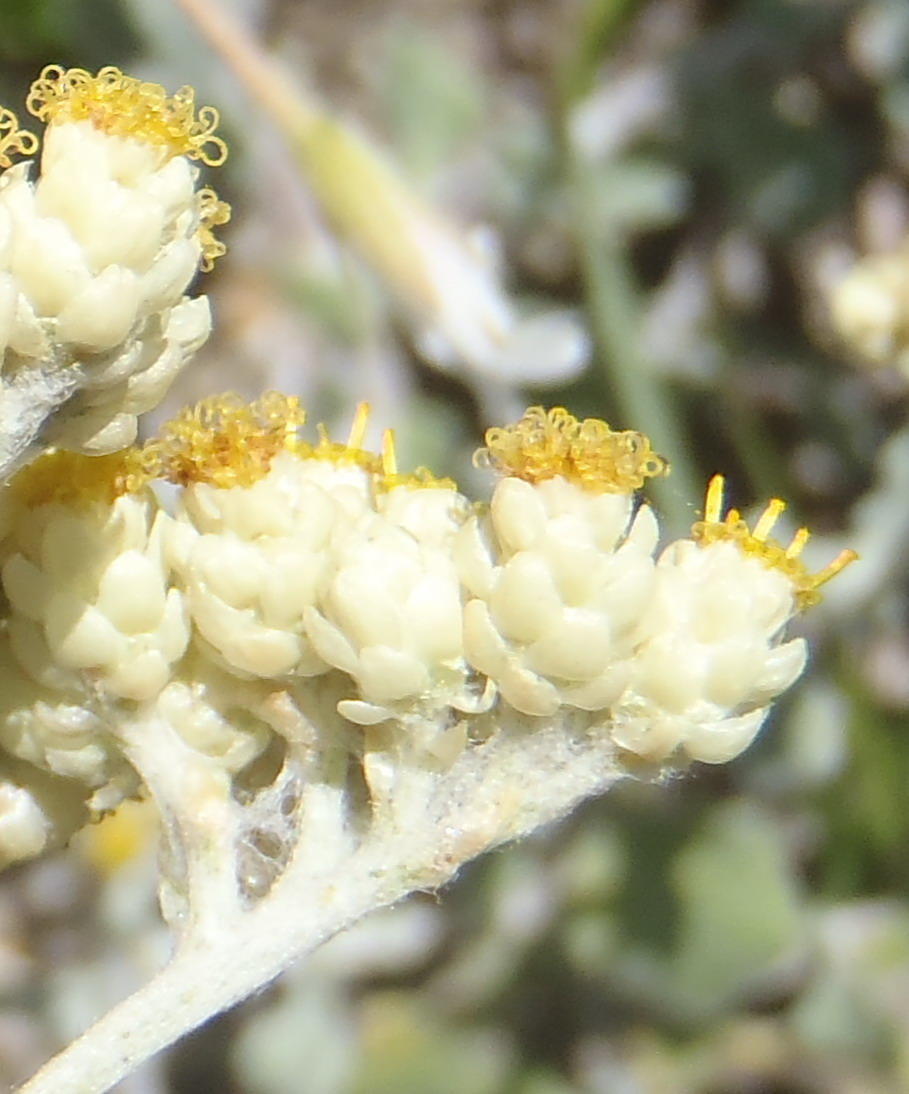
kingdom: Plantae
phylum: Tracheophyta
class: Magnoliopsida
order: Asterales
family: Asteraceae
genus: Helichrysum
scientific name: Helichrysum patulum
